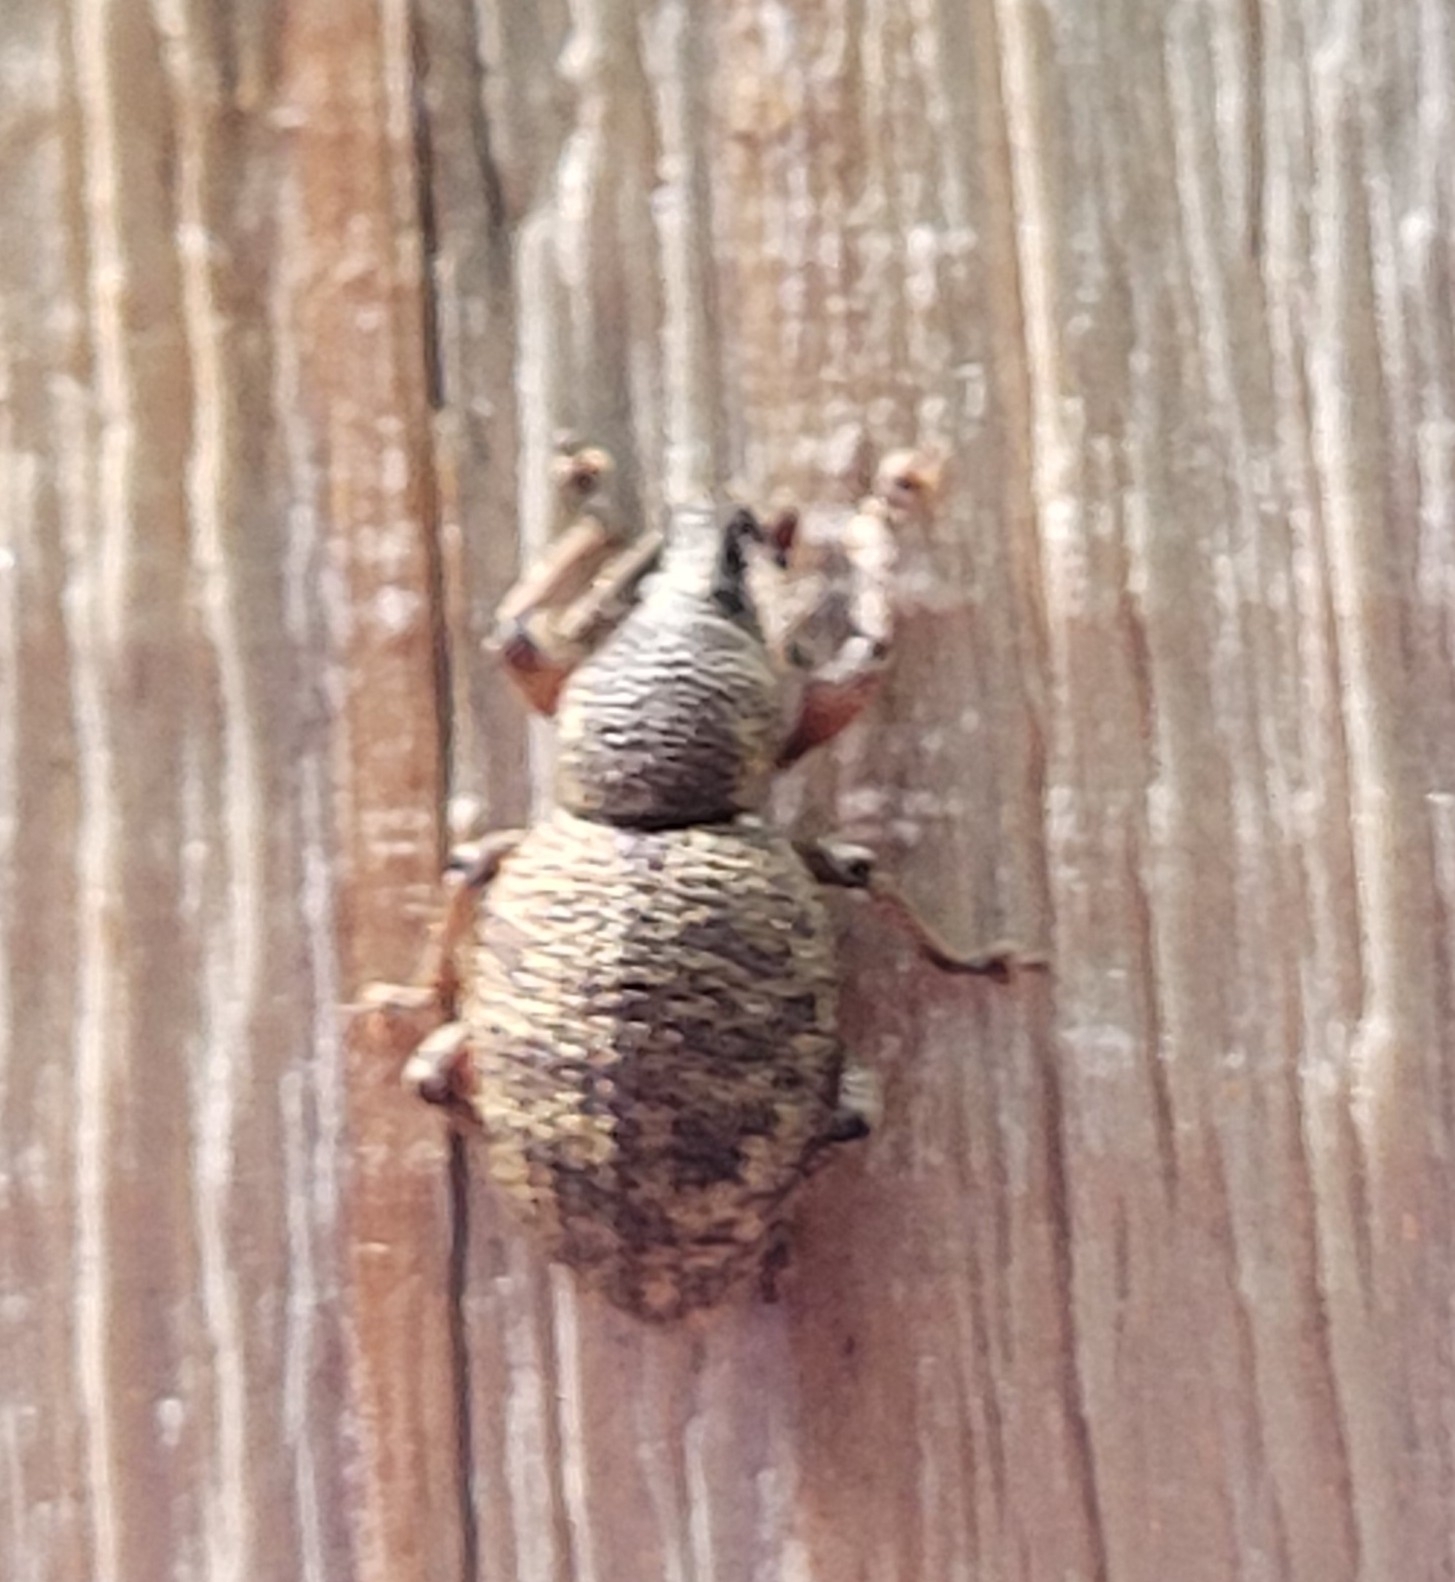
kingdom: Animalia
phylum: Arthropoda
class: Insecta
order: Coleoptera
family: Curculionidae
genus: Otiorhynchus
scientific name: Otiorhynchus singularis
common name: Clay-coloured weevil
